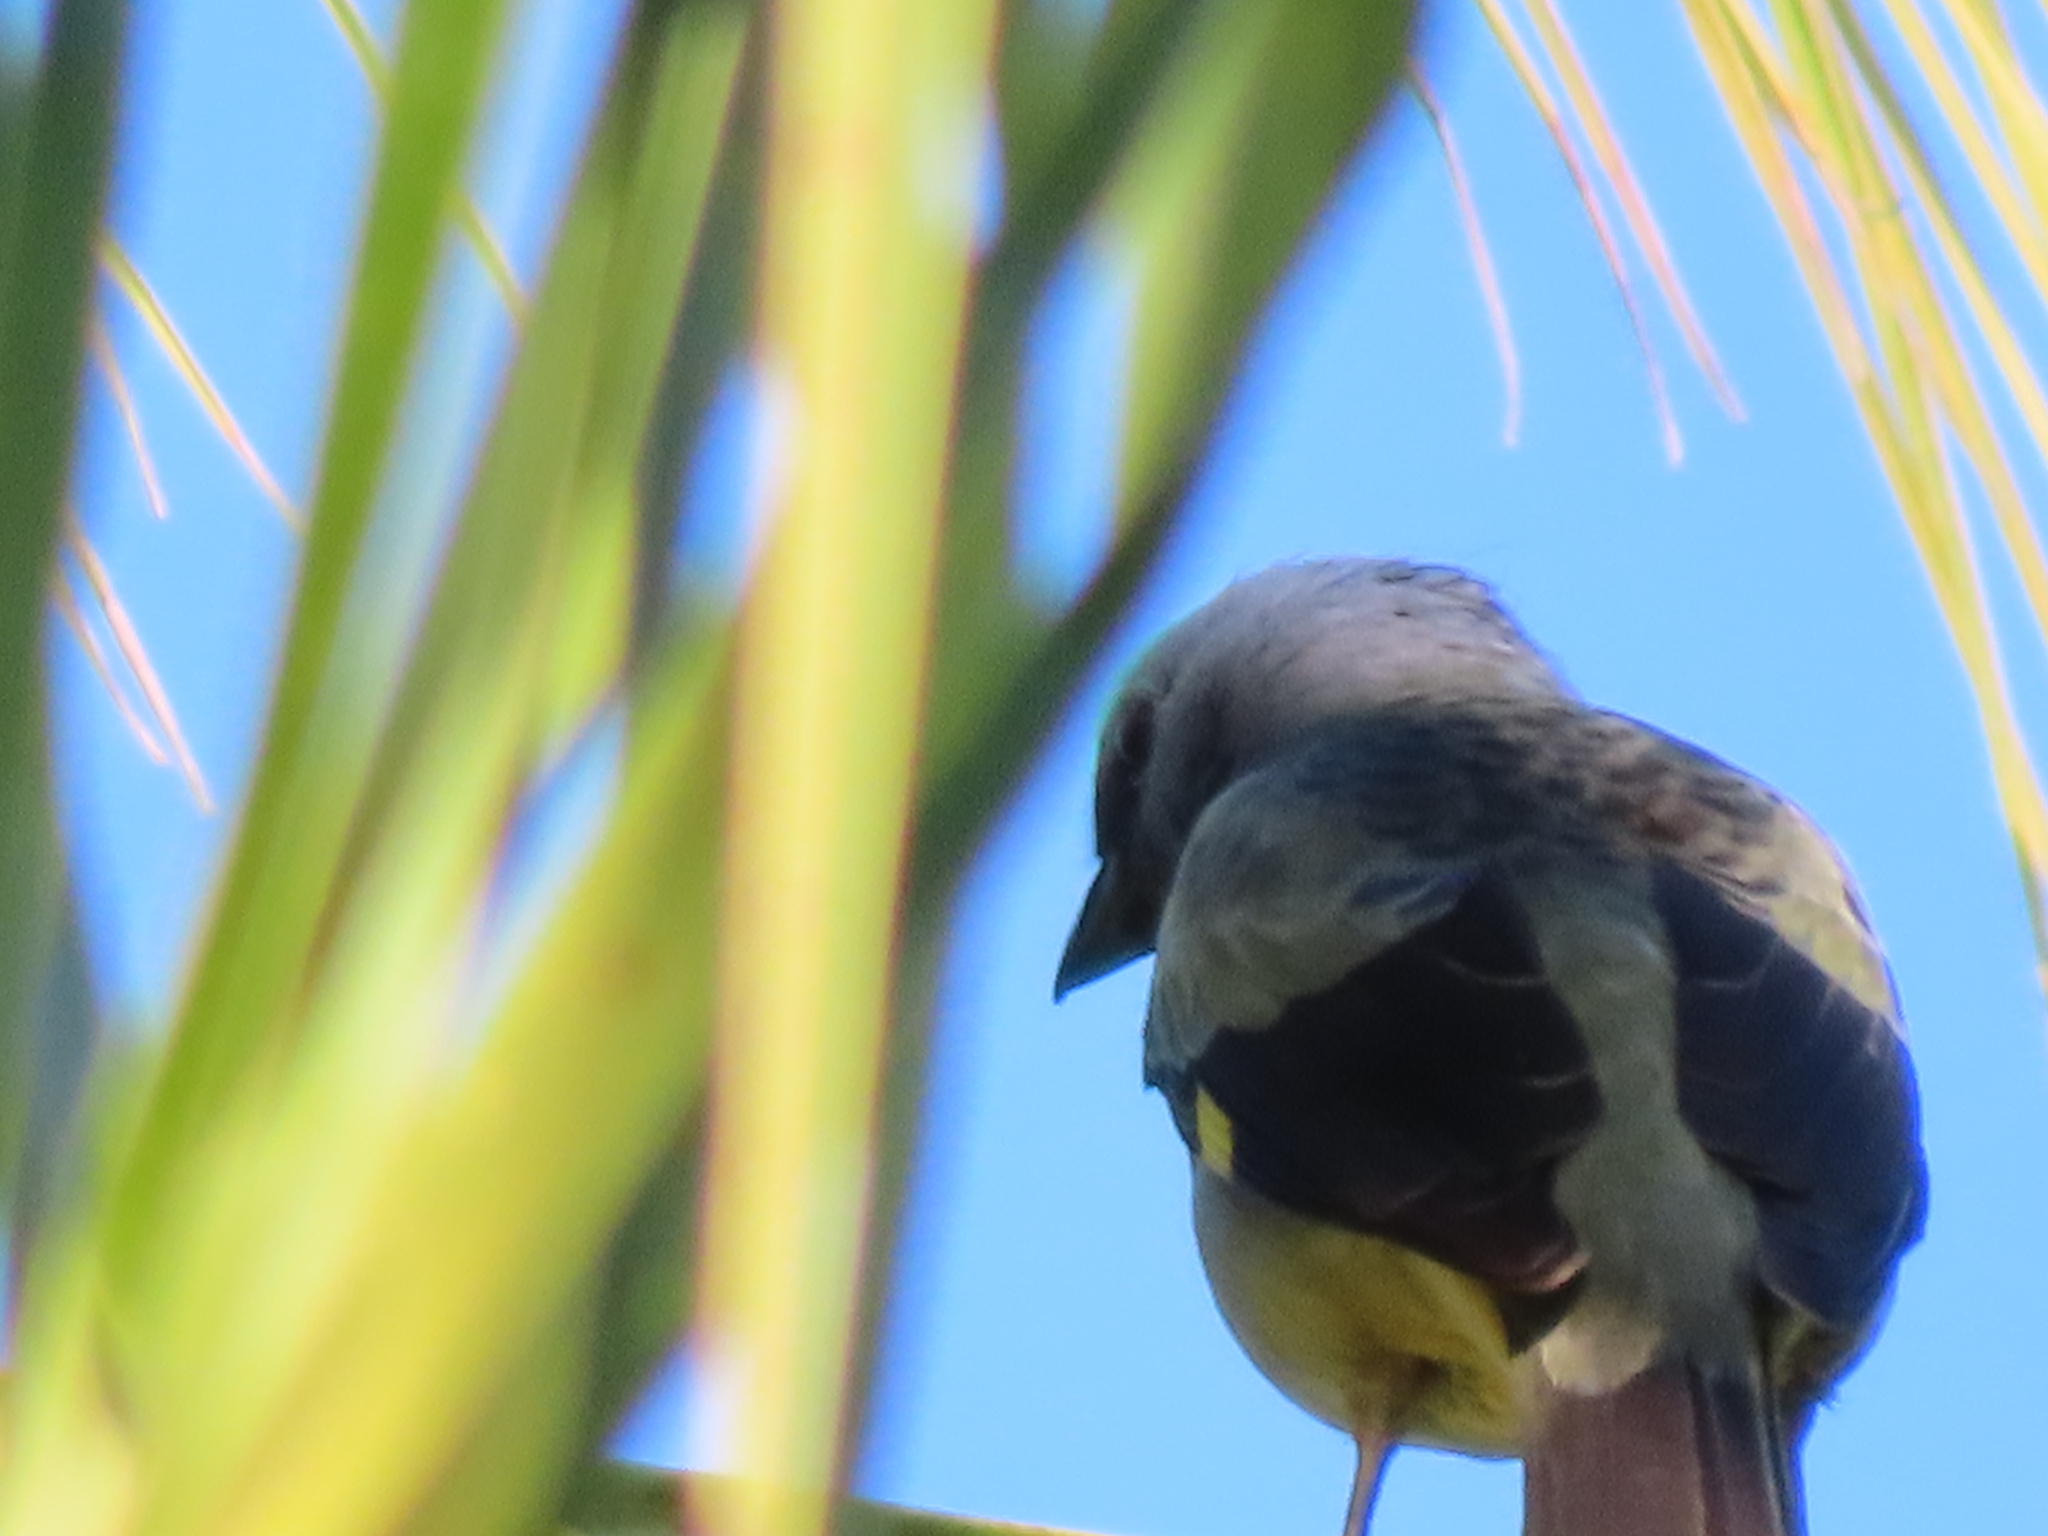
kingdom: Animalia
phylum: Chordata
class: Aves
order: Passeriformes
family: Thraupidae
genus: Thraupis
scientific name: Thraupis abbas
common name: Yellow-winged tanager
